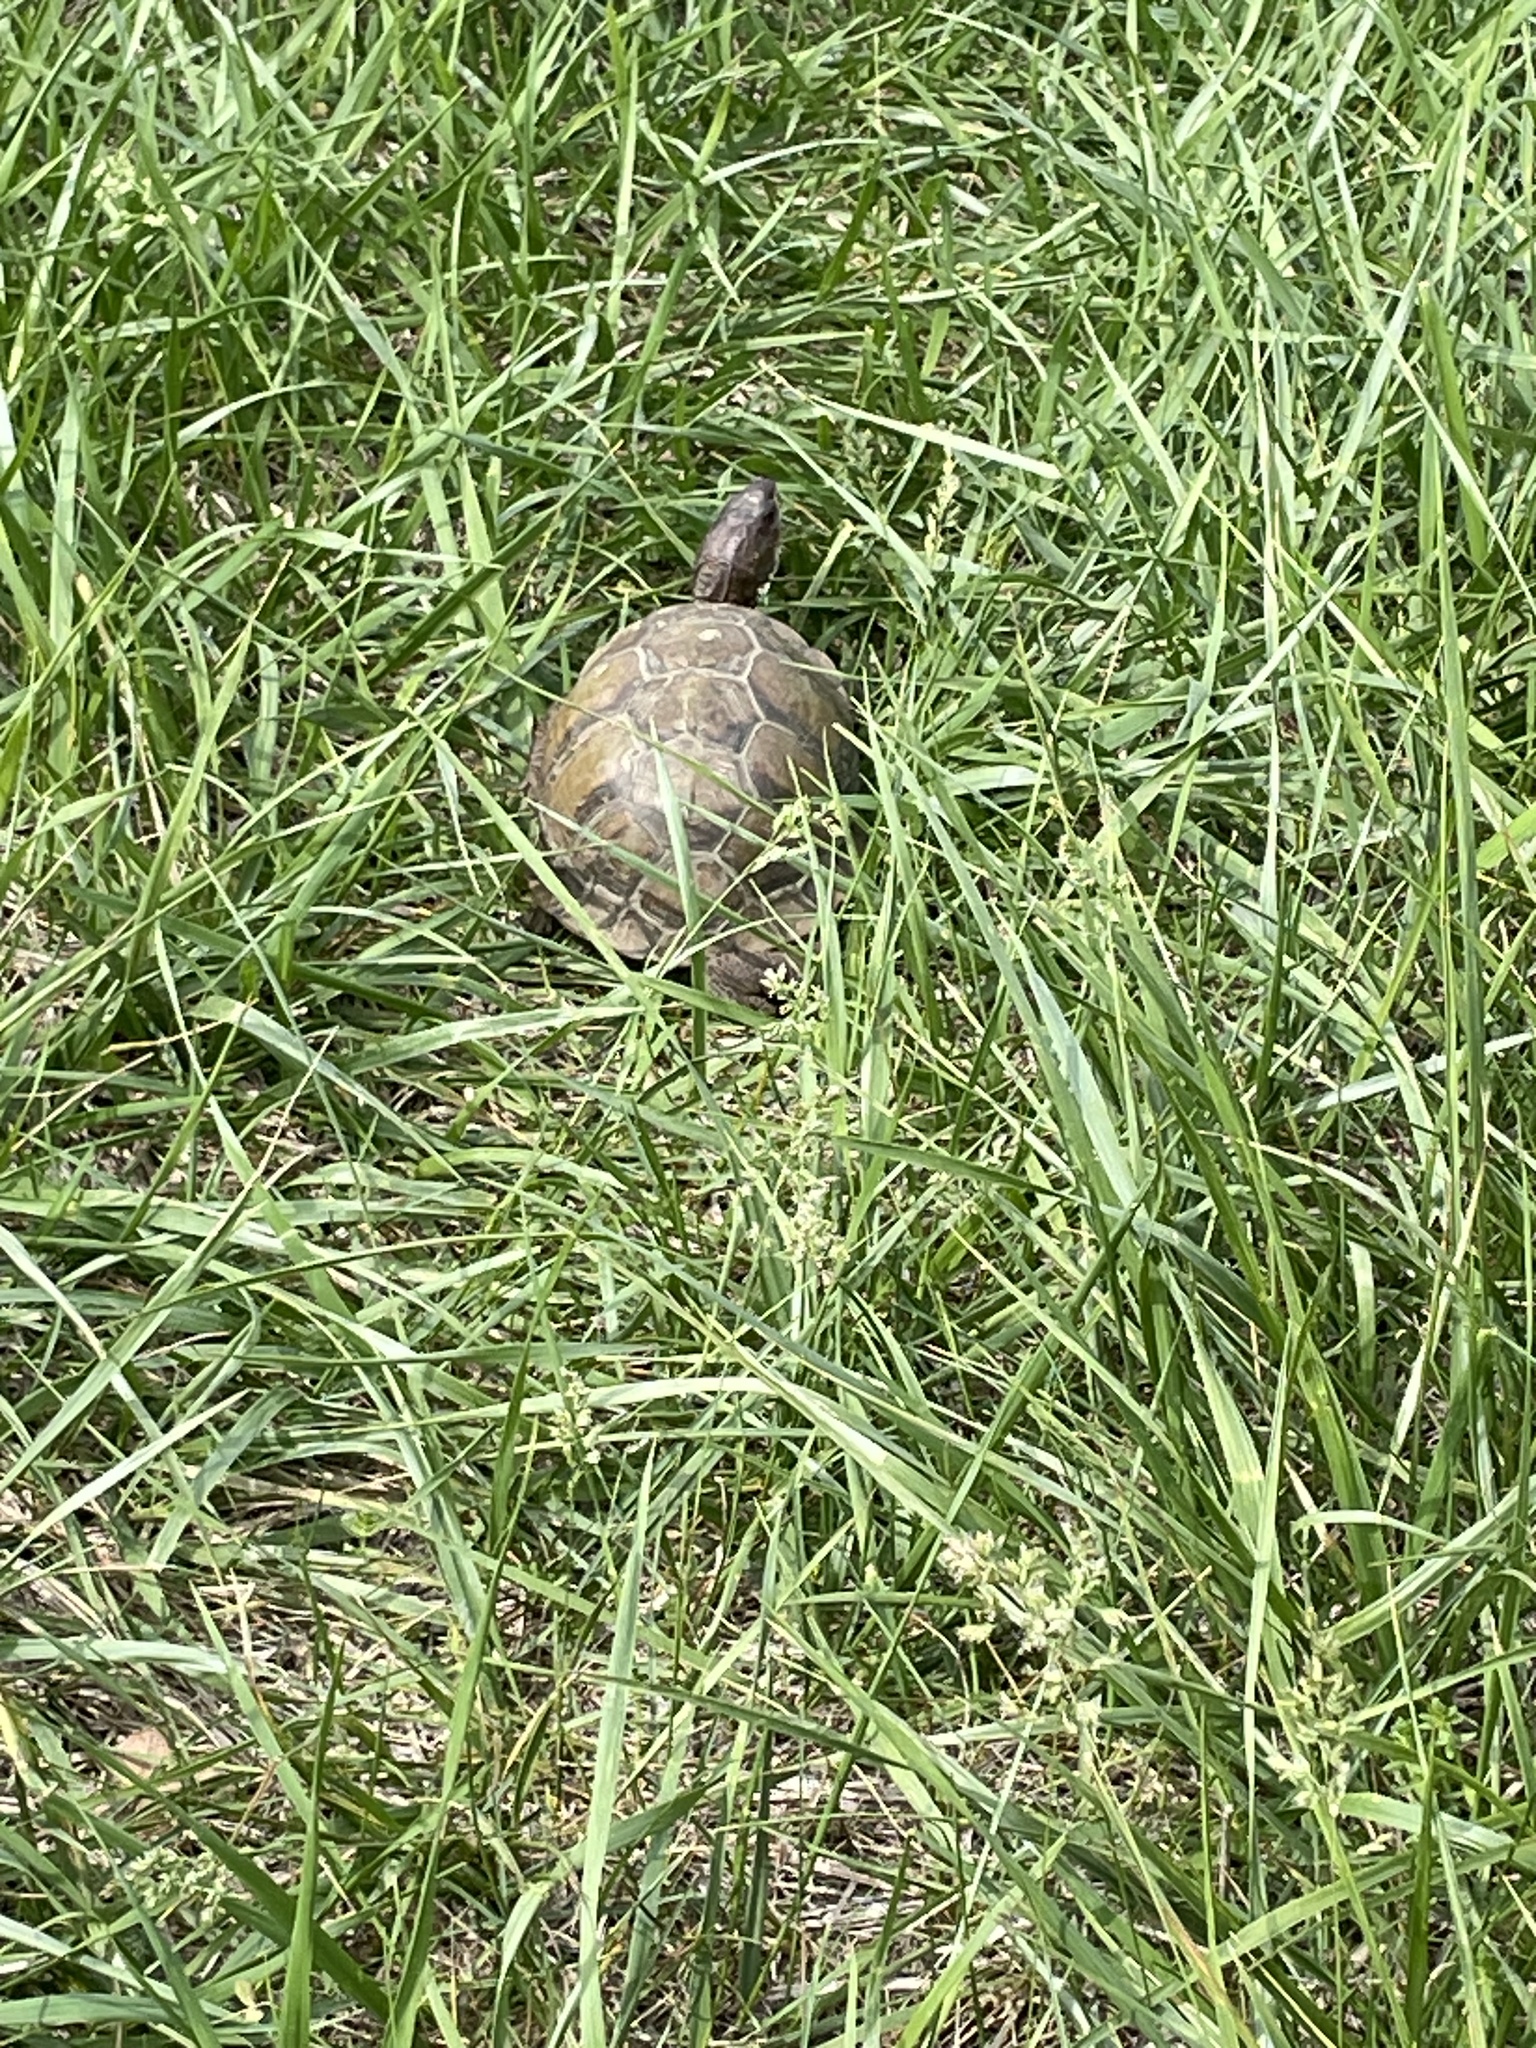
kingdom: Animalia
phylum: Chordata
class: Testudines
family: Emydidae
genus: Terrapene
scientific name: Terrapene carolina
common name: Common box turtle
